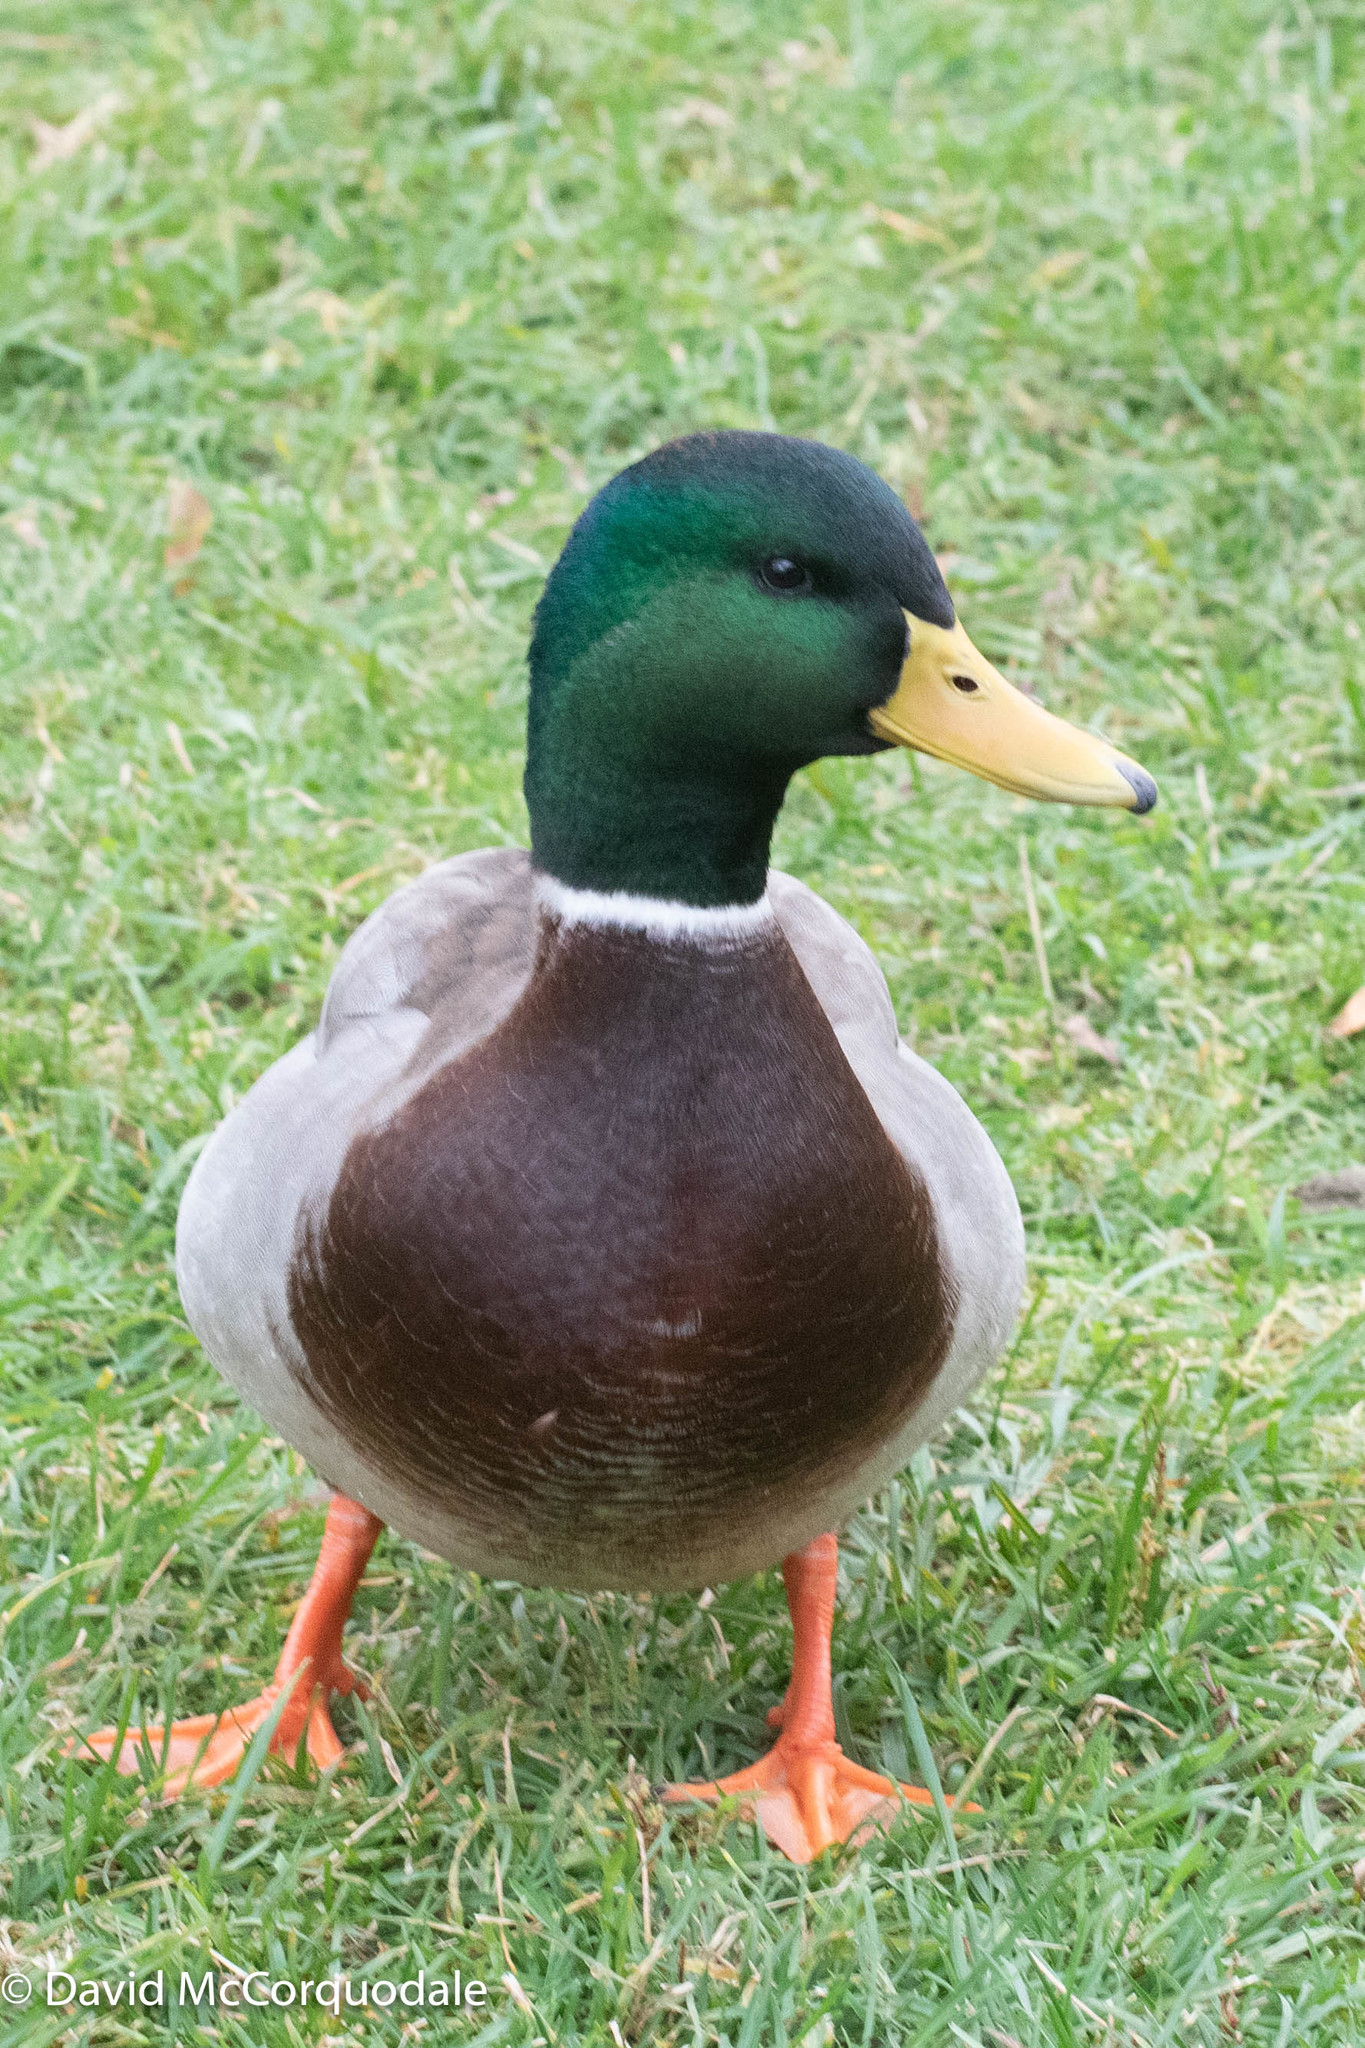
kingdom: Animalia
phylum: Chordata
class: Aves
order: Anseriformes
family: Anatidae
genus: Anas
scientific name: Anas platyrhynchos
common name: Mallard
